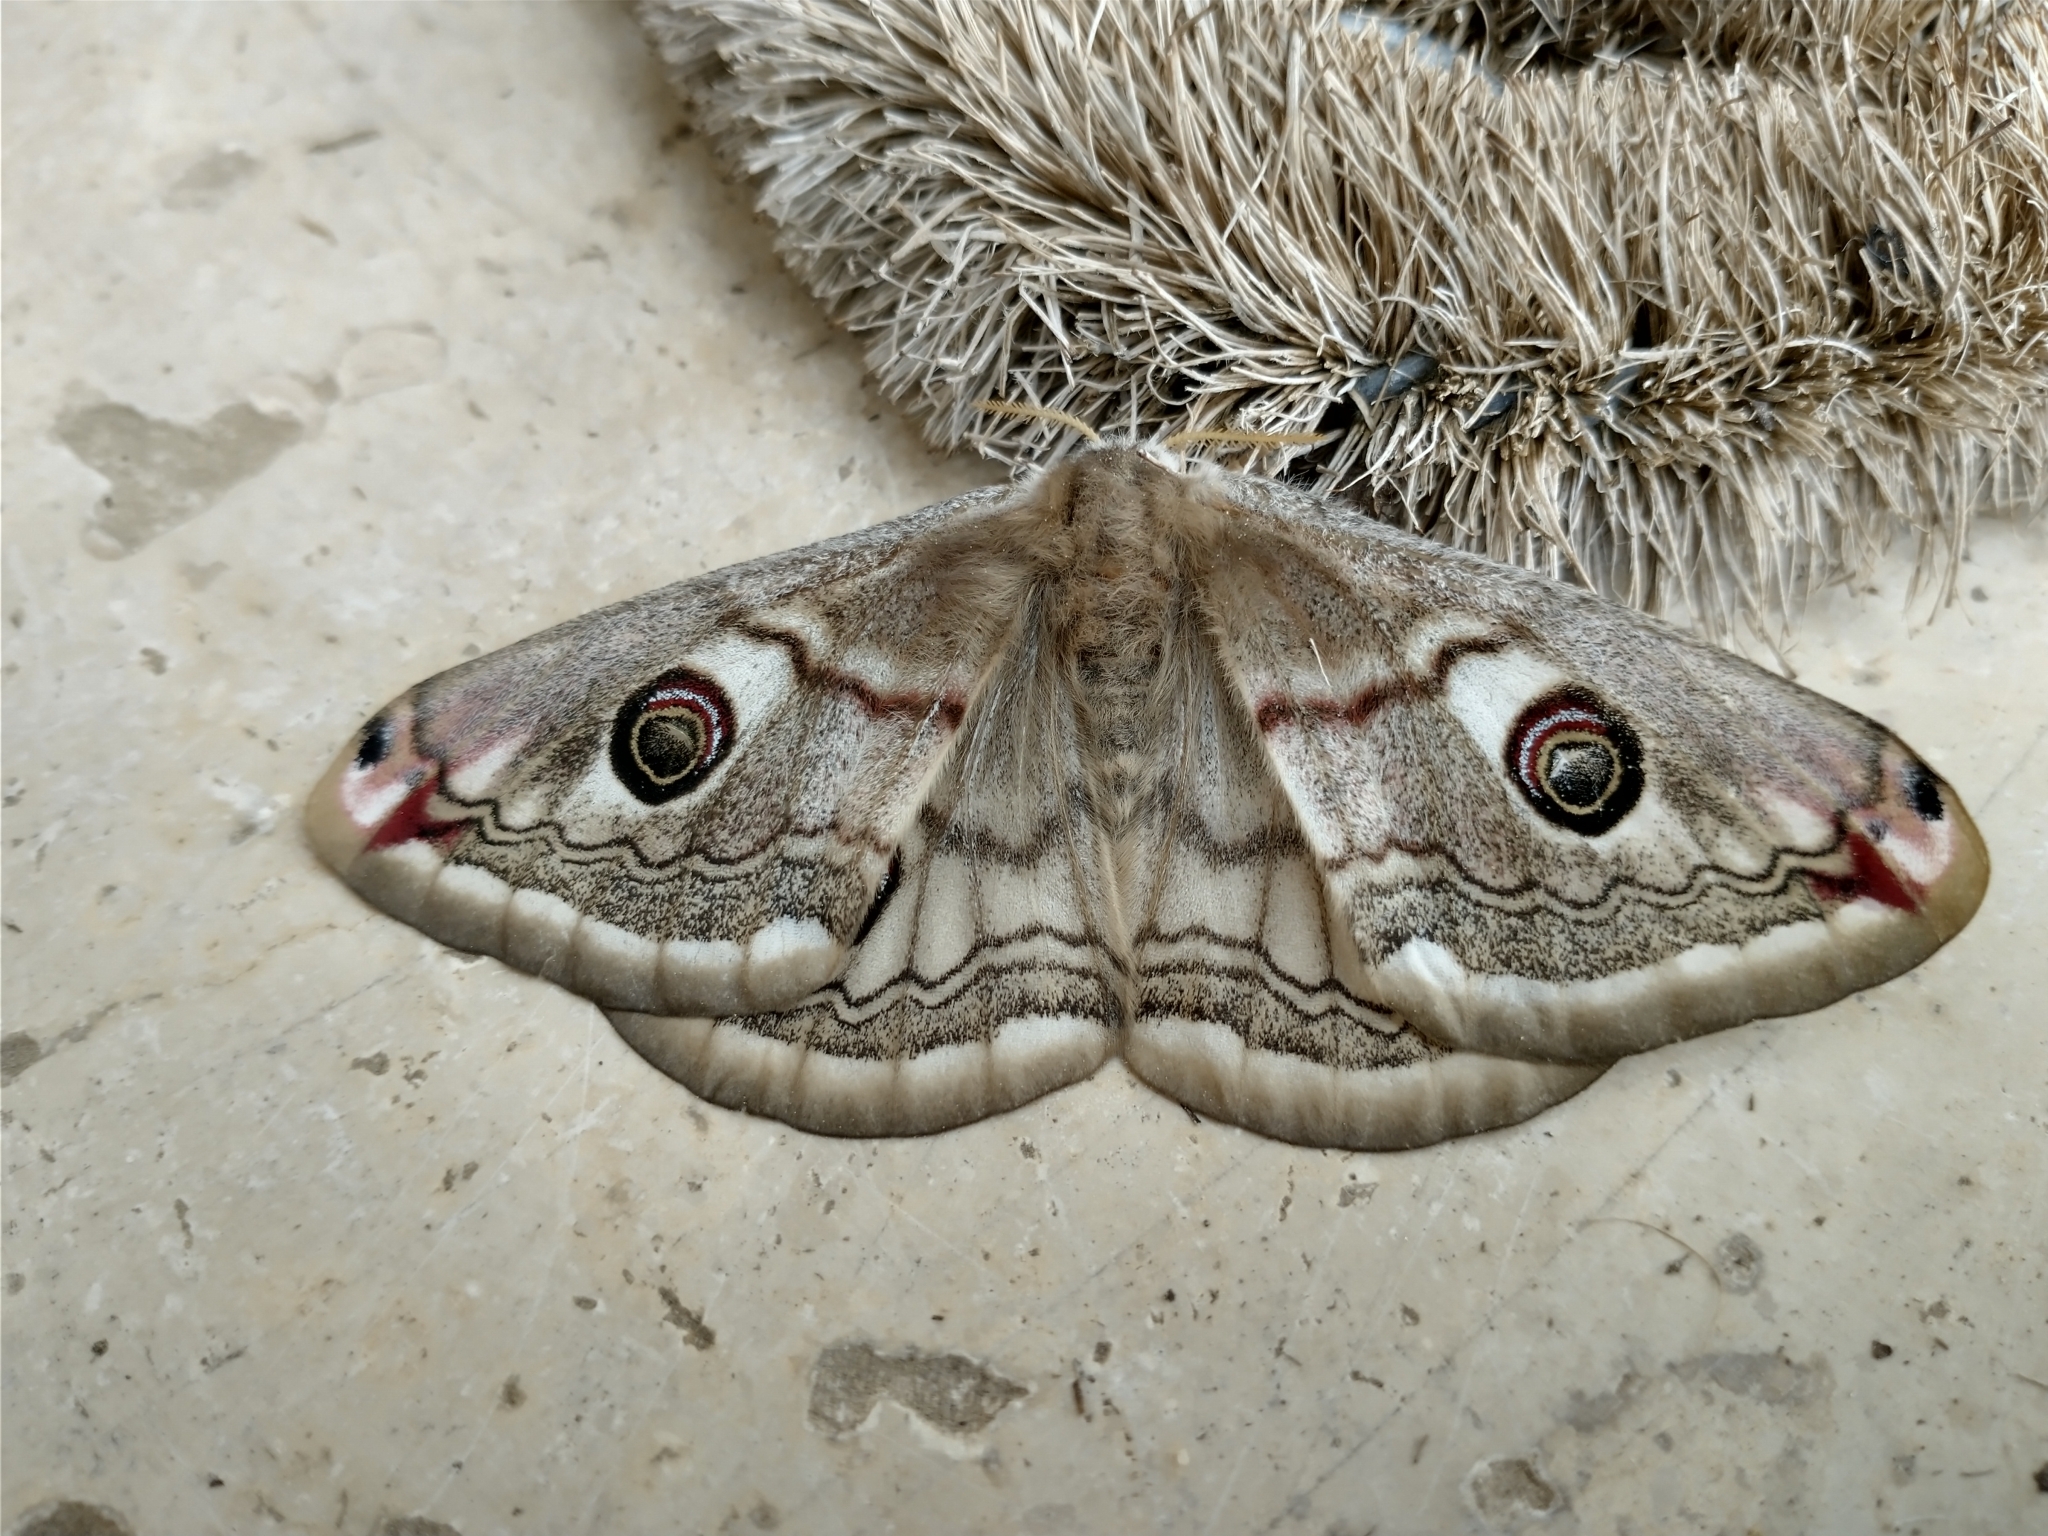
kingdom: Animalia
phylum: Arthropoda
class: Insecta
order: Lepidoptera
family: Saturniidae
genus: Saturnia
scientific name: Saturnia pavoniella
